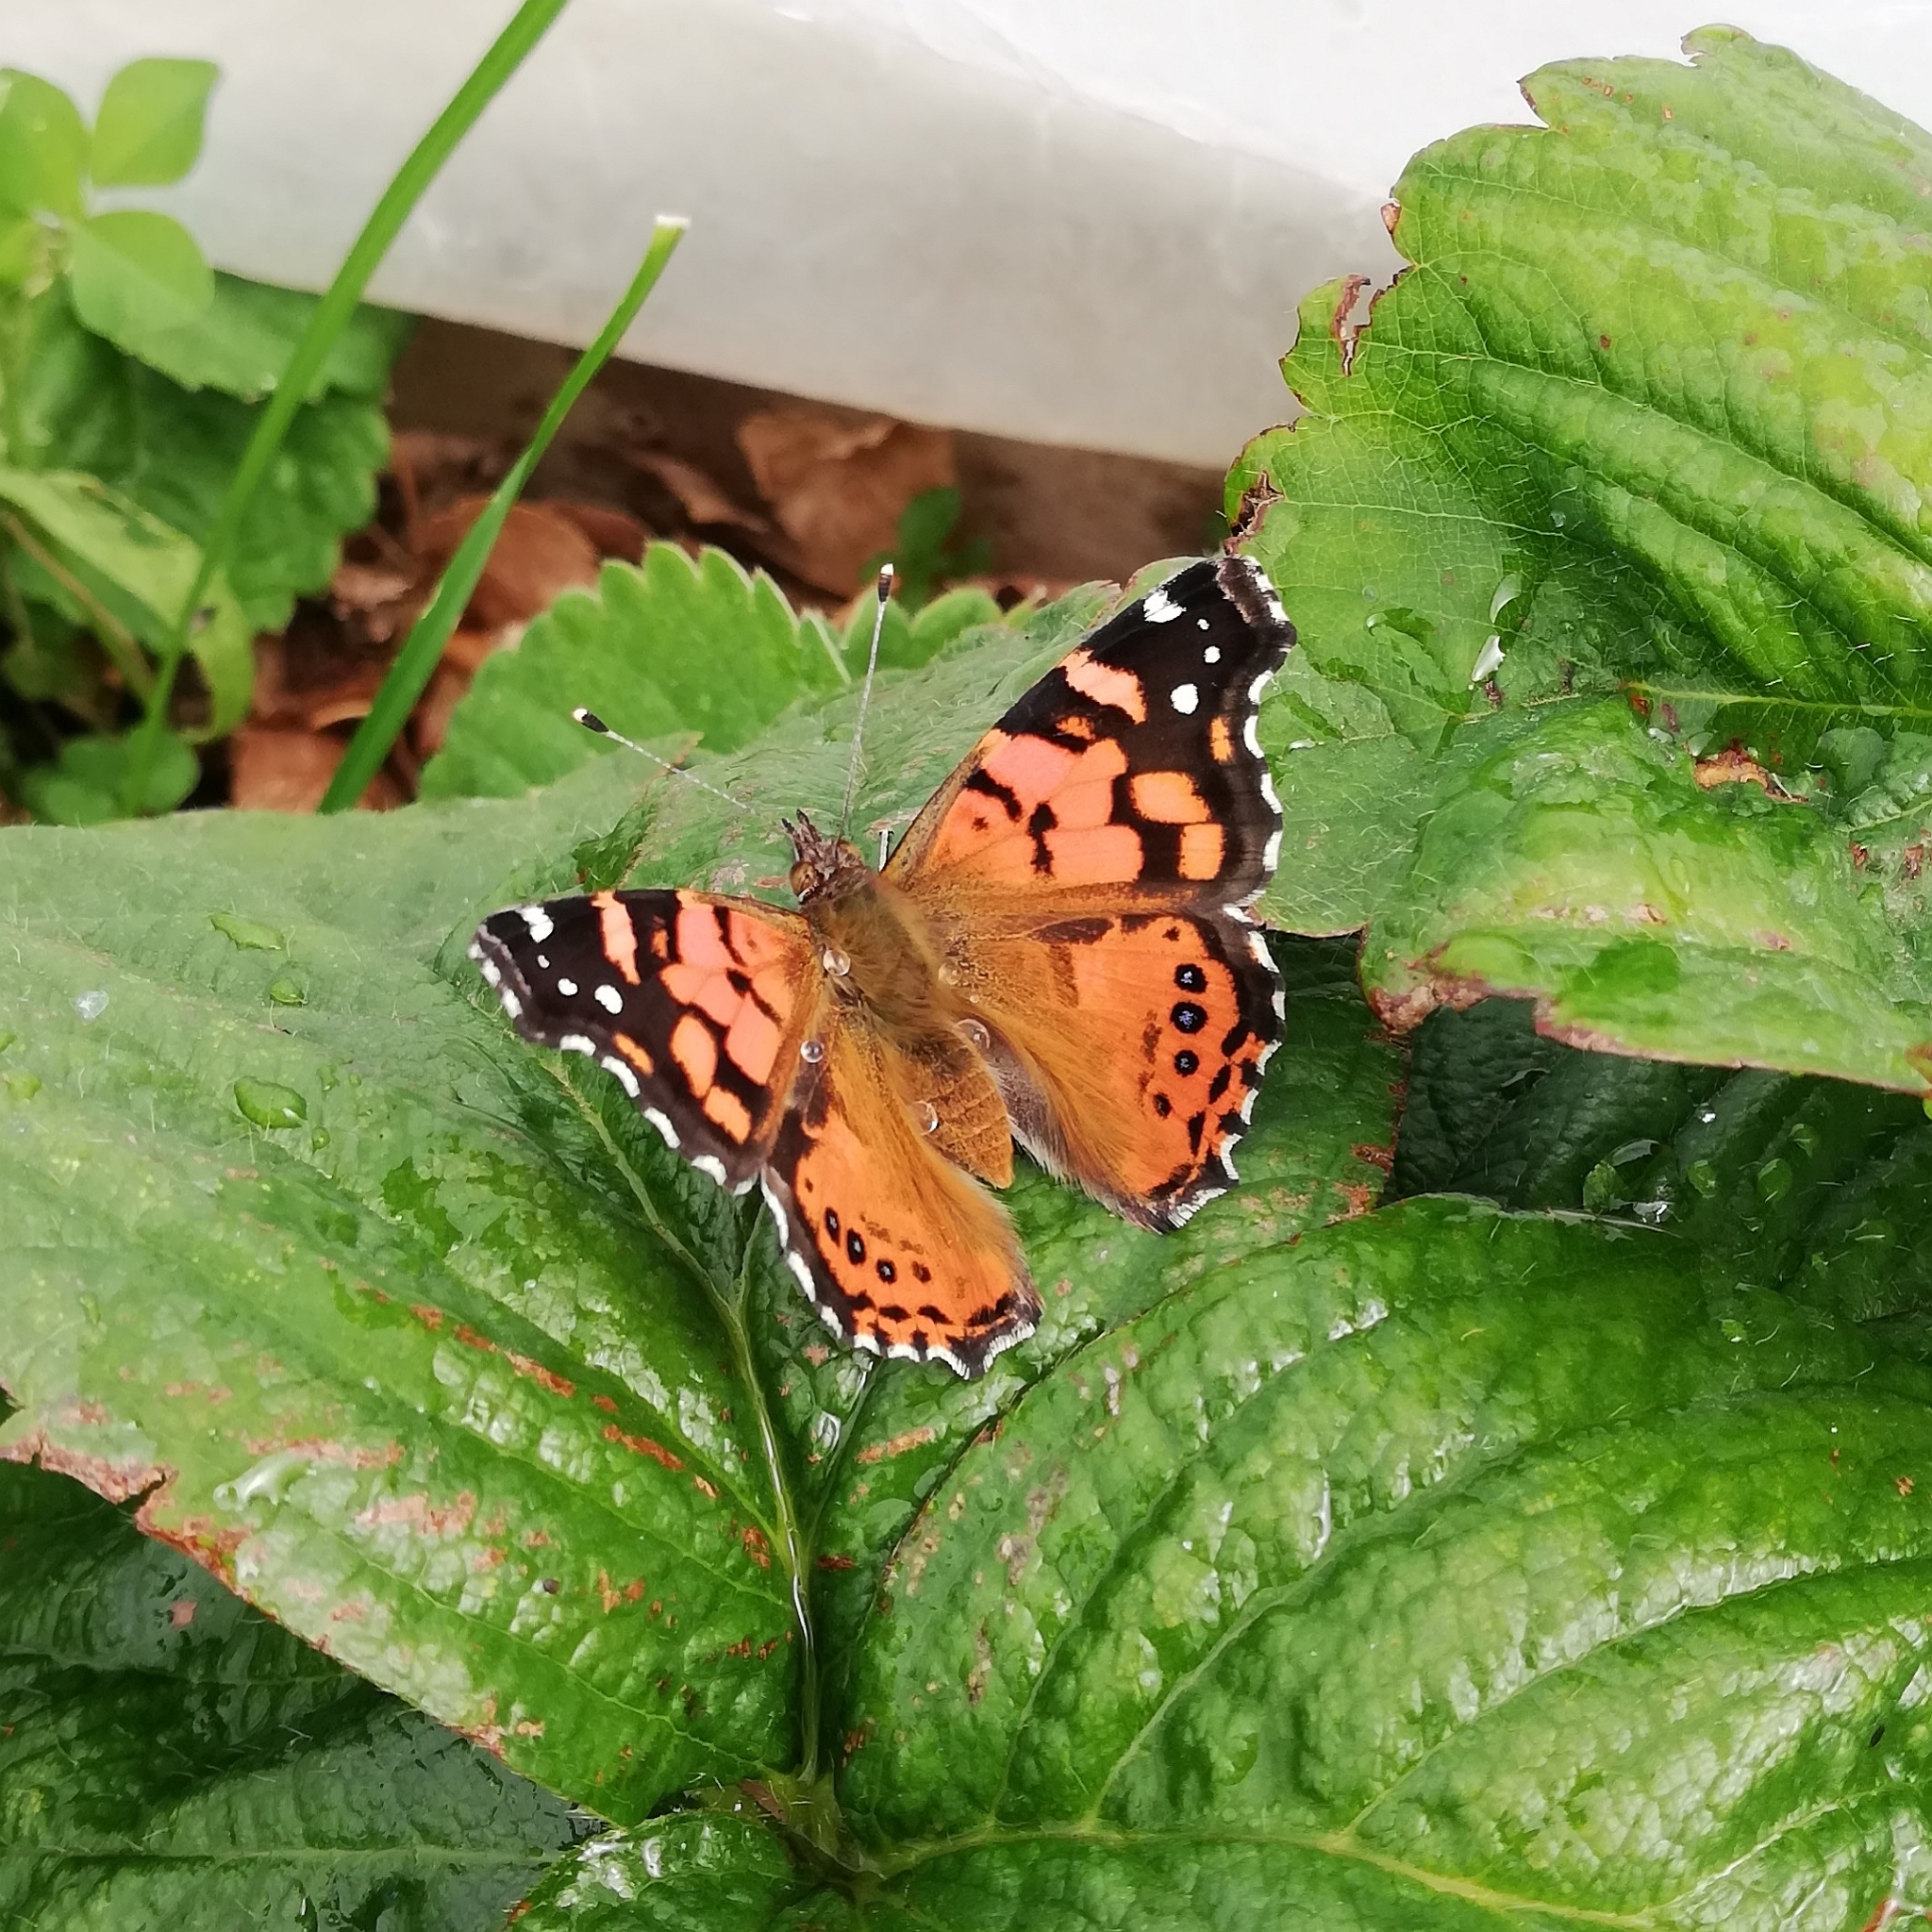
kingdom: Animalia
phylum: Arthropoda
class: Insecta
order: Lepidoptera
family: Nymphalidae
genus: Vanessa
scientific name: Vanessa carye
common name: Subtropical lady
